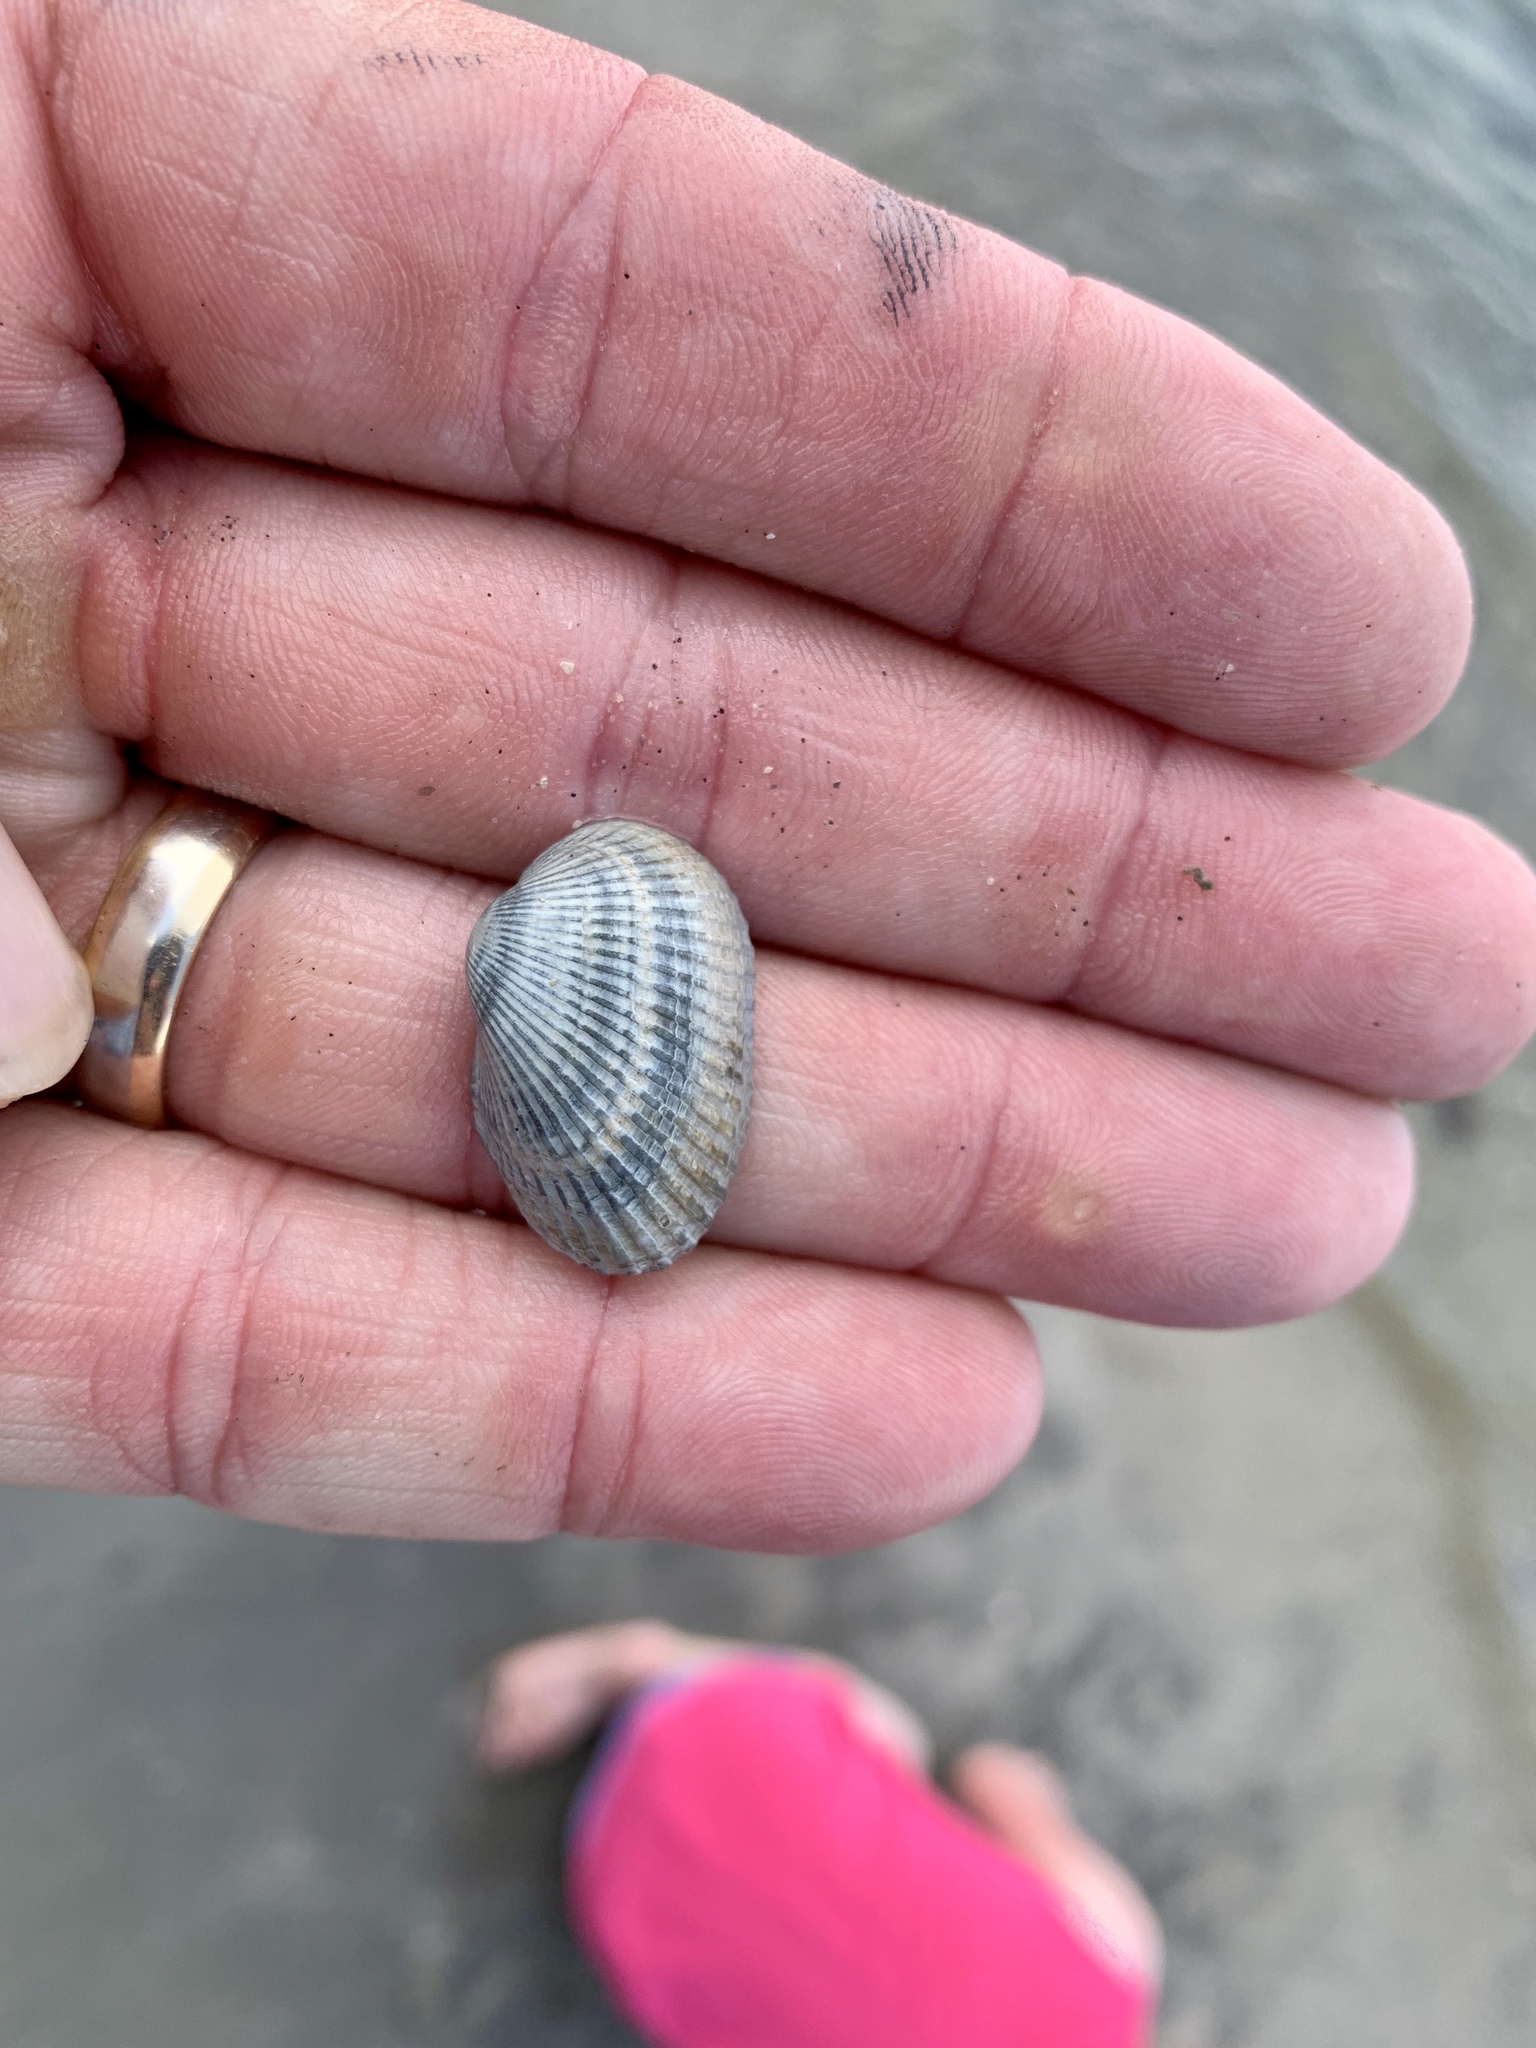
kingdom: Animalia
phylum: Mollusca
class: Bivalvia
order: Arcida
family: Arcidae
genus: Anadara
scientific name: Anadara transversa
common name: Transverse ark
